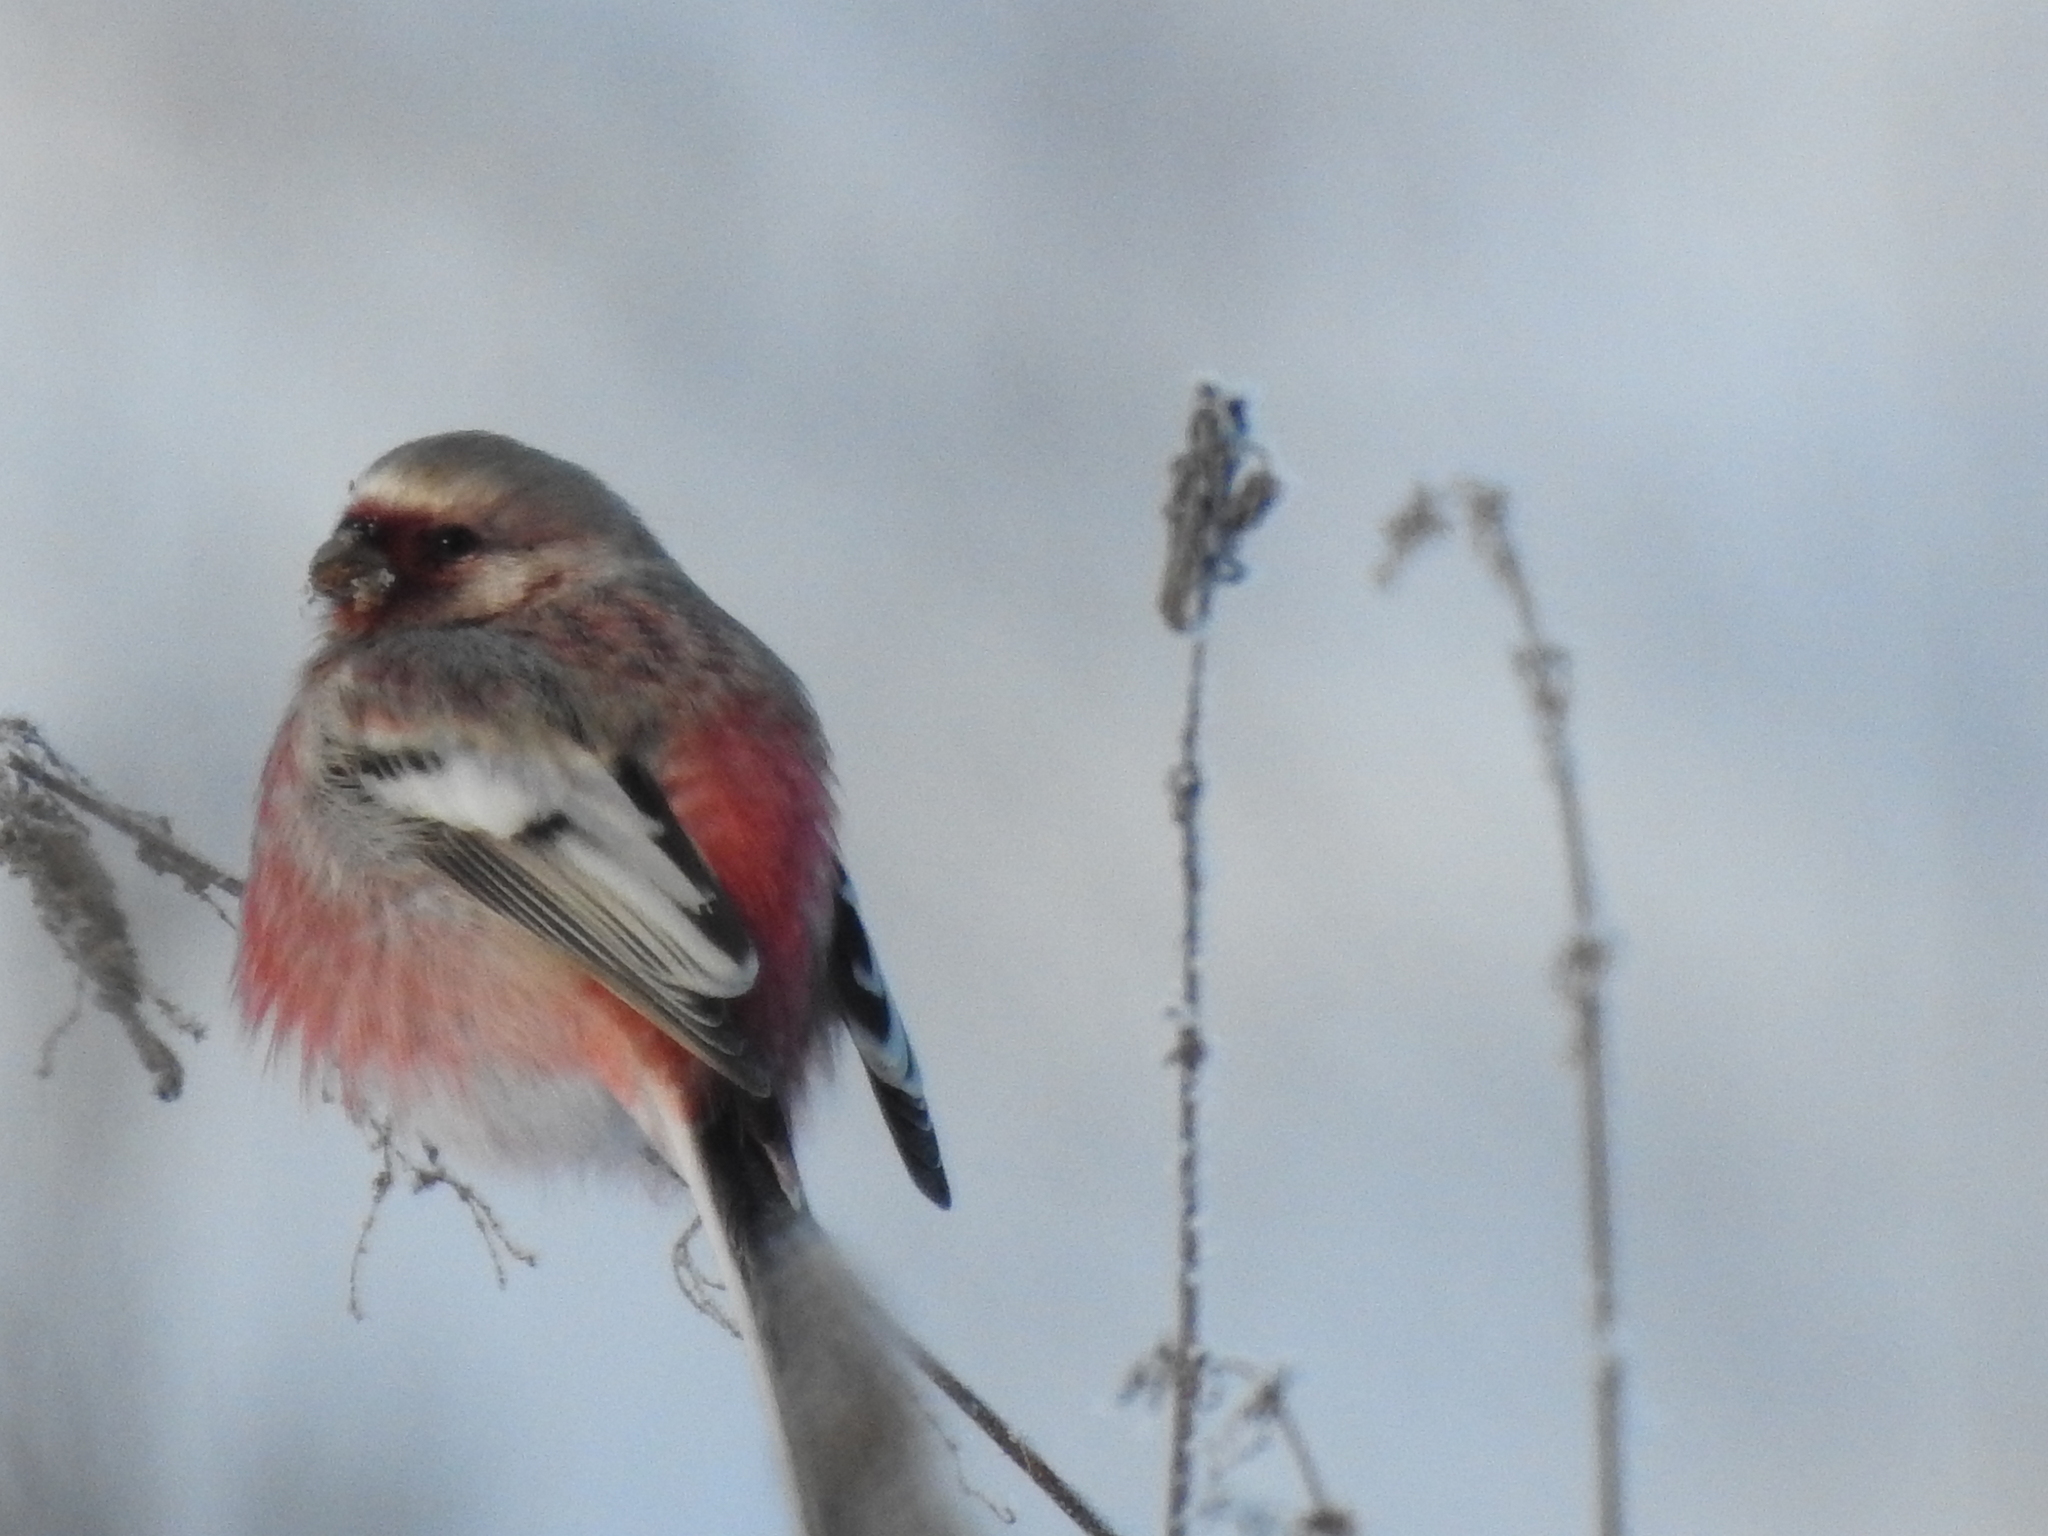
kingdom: Animalia
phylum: Chordata
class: Aves
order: Passeriformes
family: Fringillidae
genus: Carpodacus
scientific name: Carpodacus sibiricus
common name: Long-tailed rosefinch
